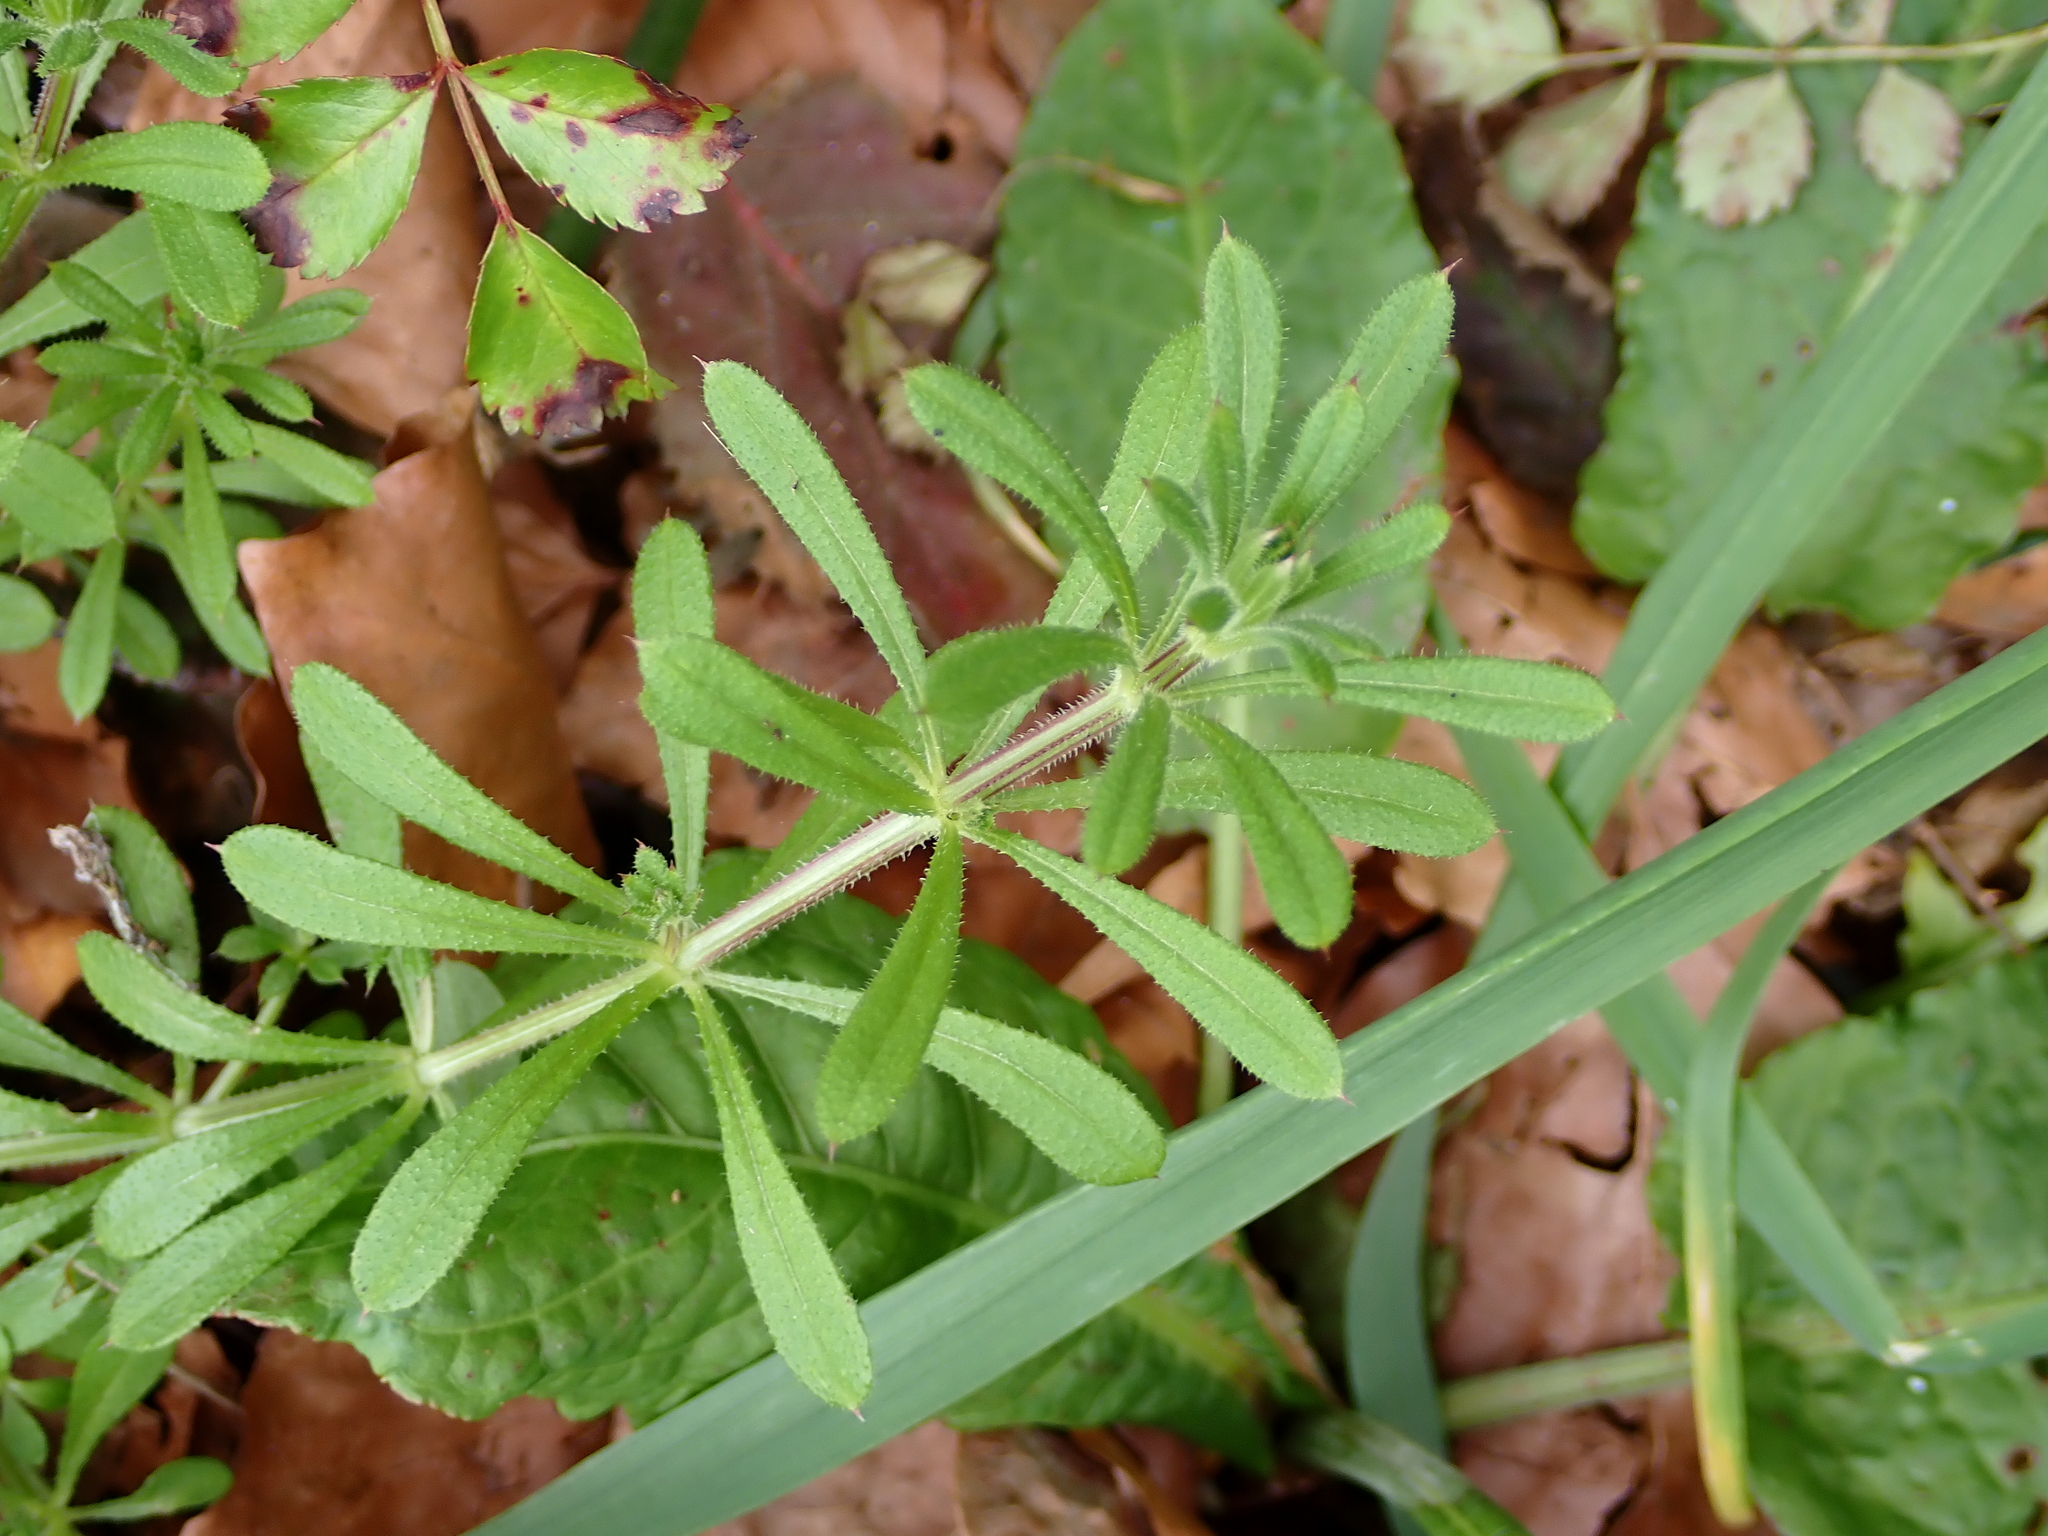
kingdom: Plantae
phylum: Tracheophyta
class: Magnoliopsida
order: Gentianales
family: Rubiaceae
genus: Galium
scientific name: Galium aparine
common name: Cleavers
